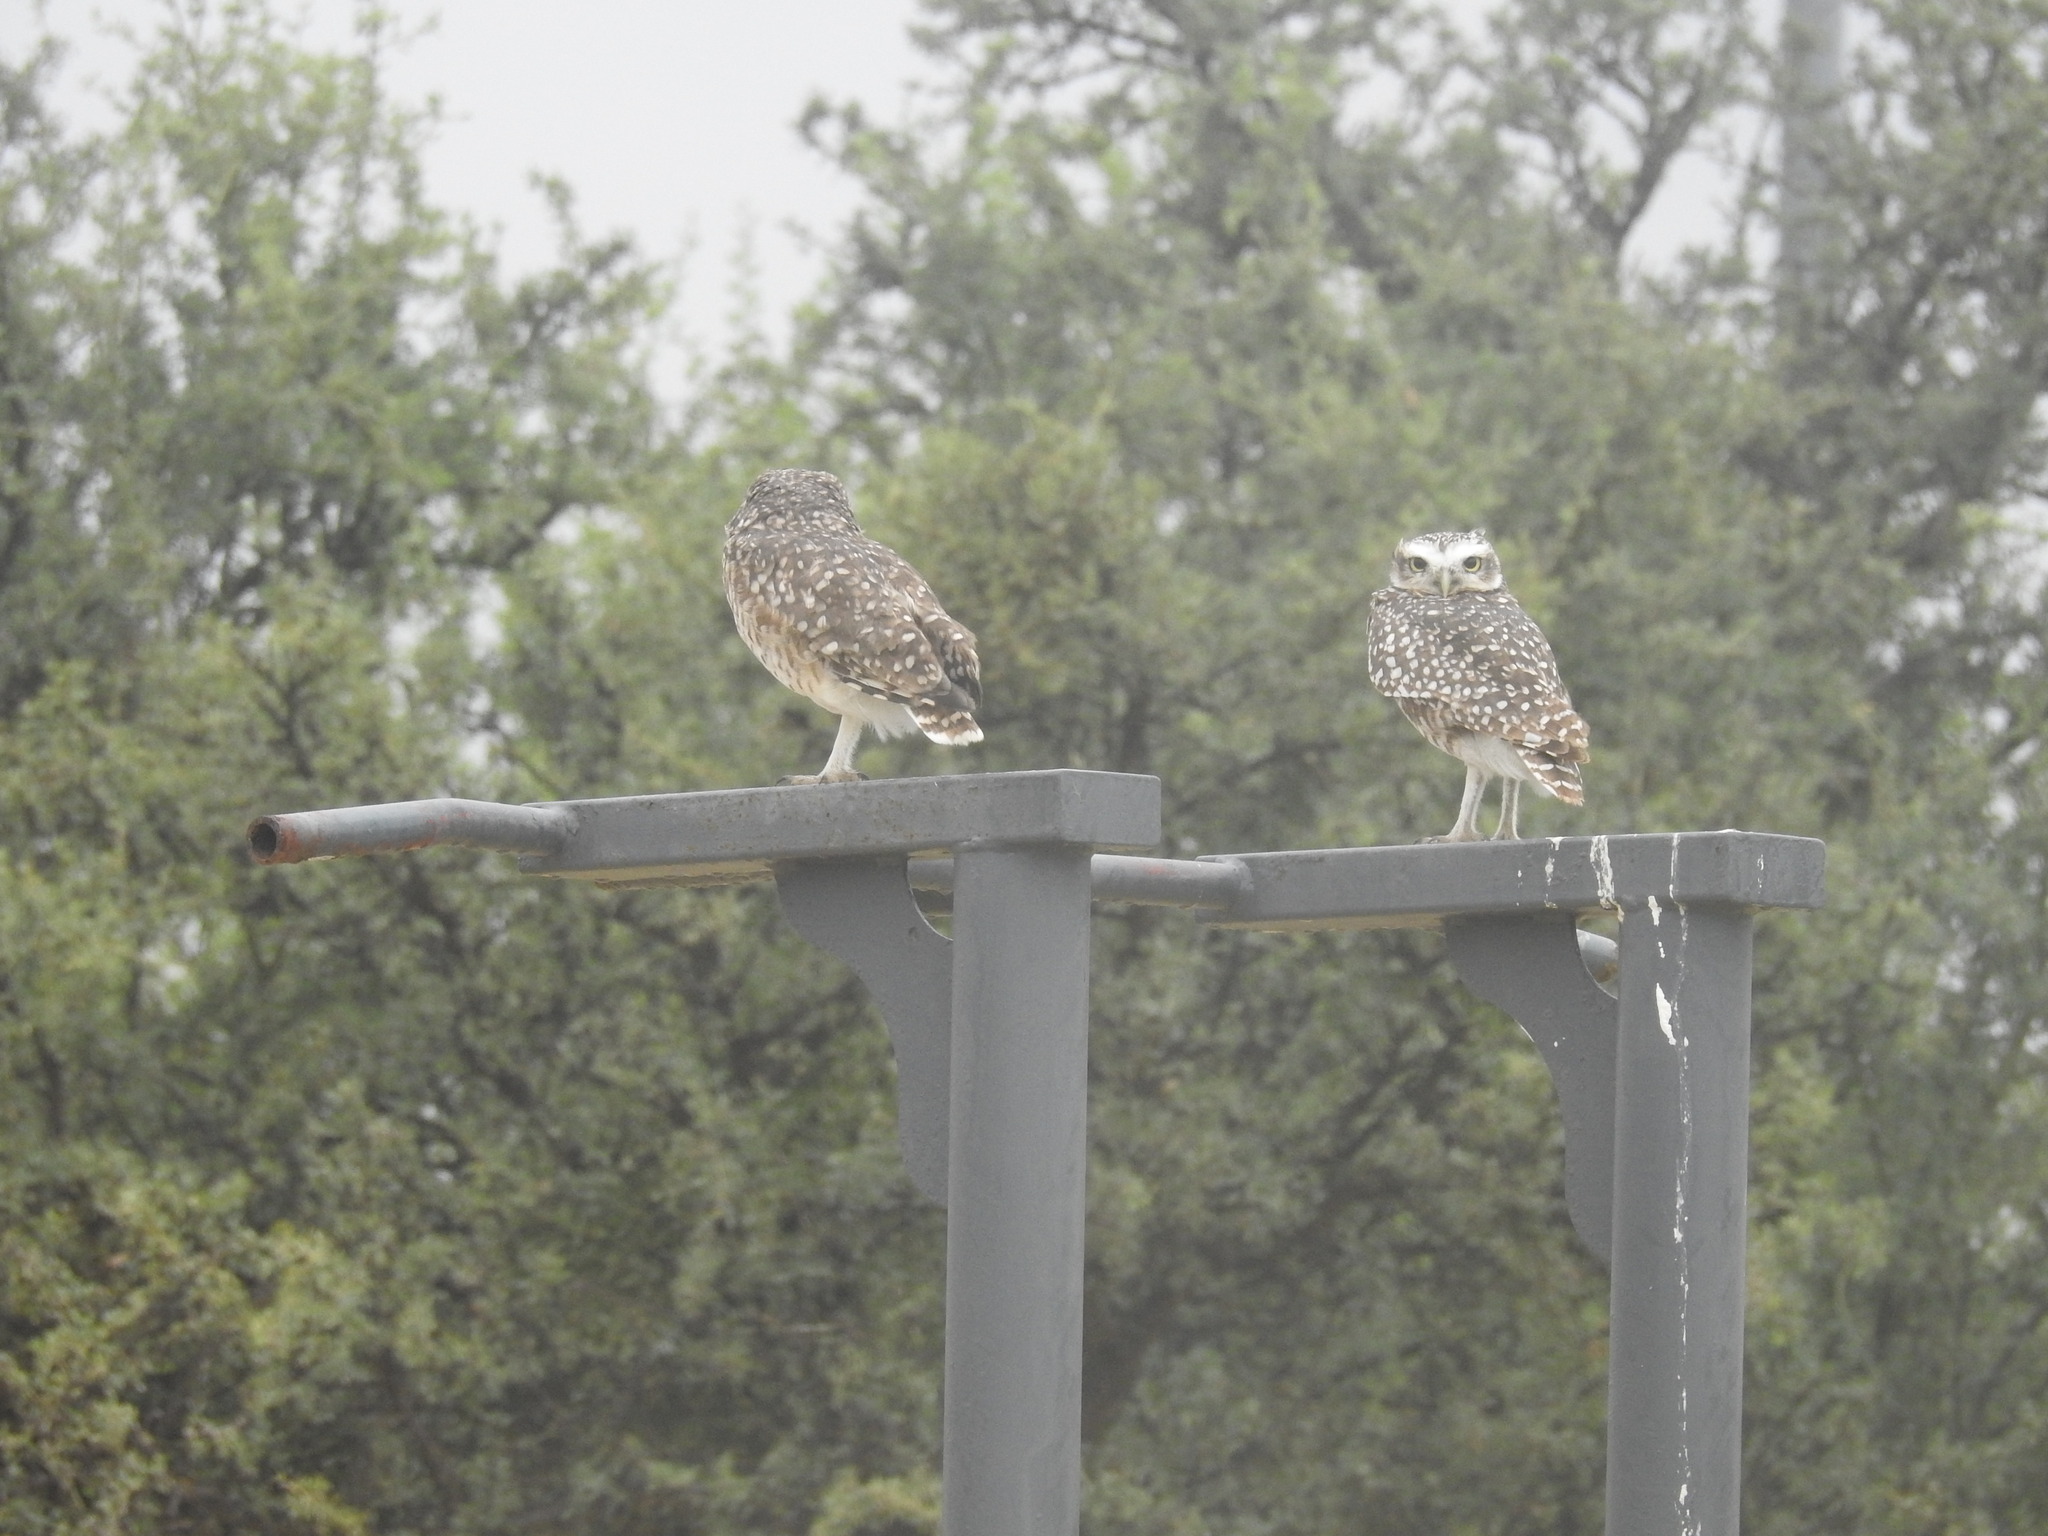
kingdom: Animalia
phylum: Chordata
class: Aves
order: Strigiformes
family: Strigidae
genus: Athene
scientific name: Athene cunicularia
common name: Burrowing owl
